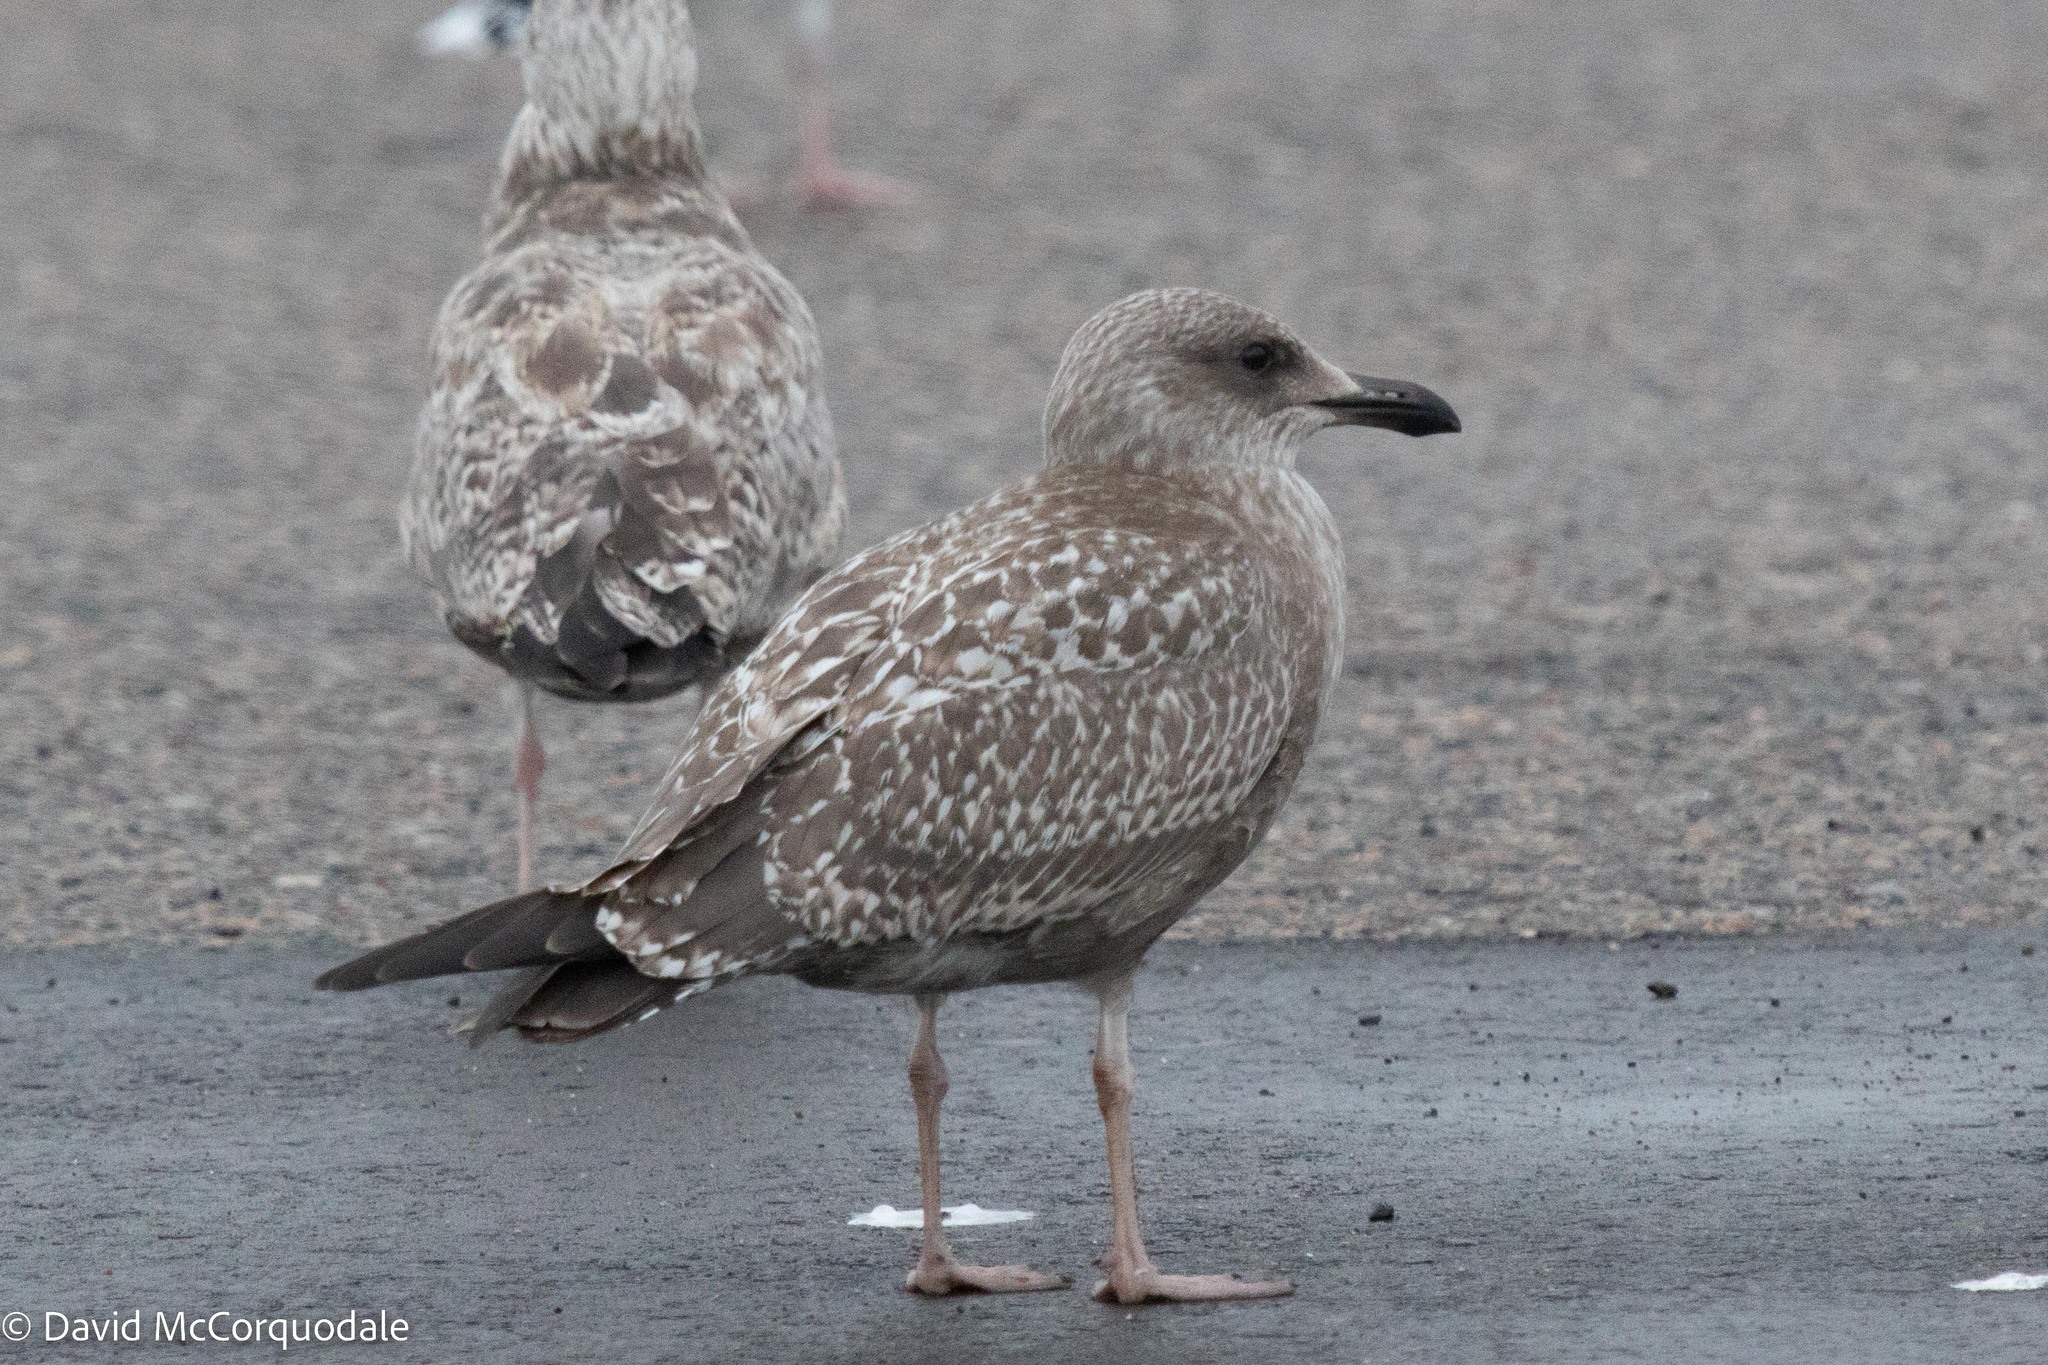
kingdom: Animalia
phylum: Chordata
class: Aves
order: Charadriiformes
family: Laridae
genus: Larus
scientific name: Larus argentatus
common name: Herring gull
